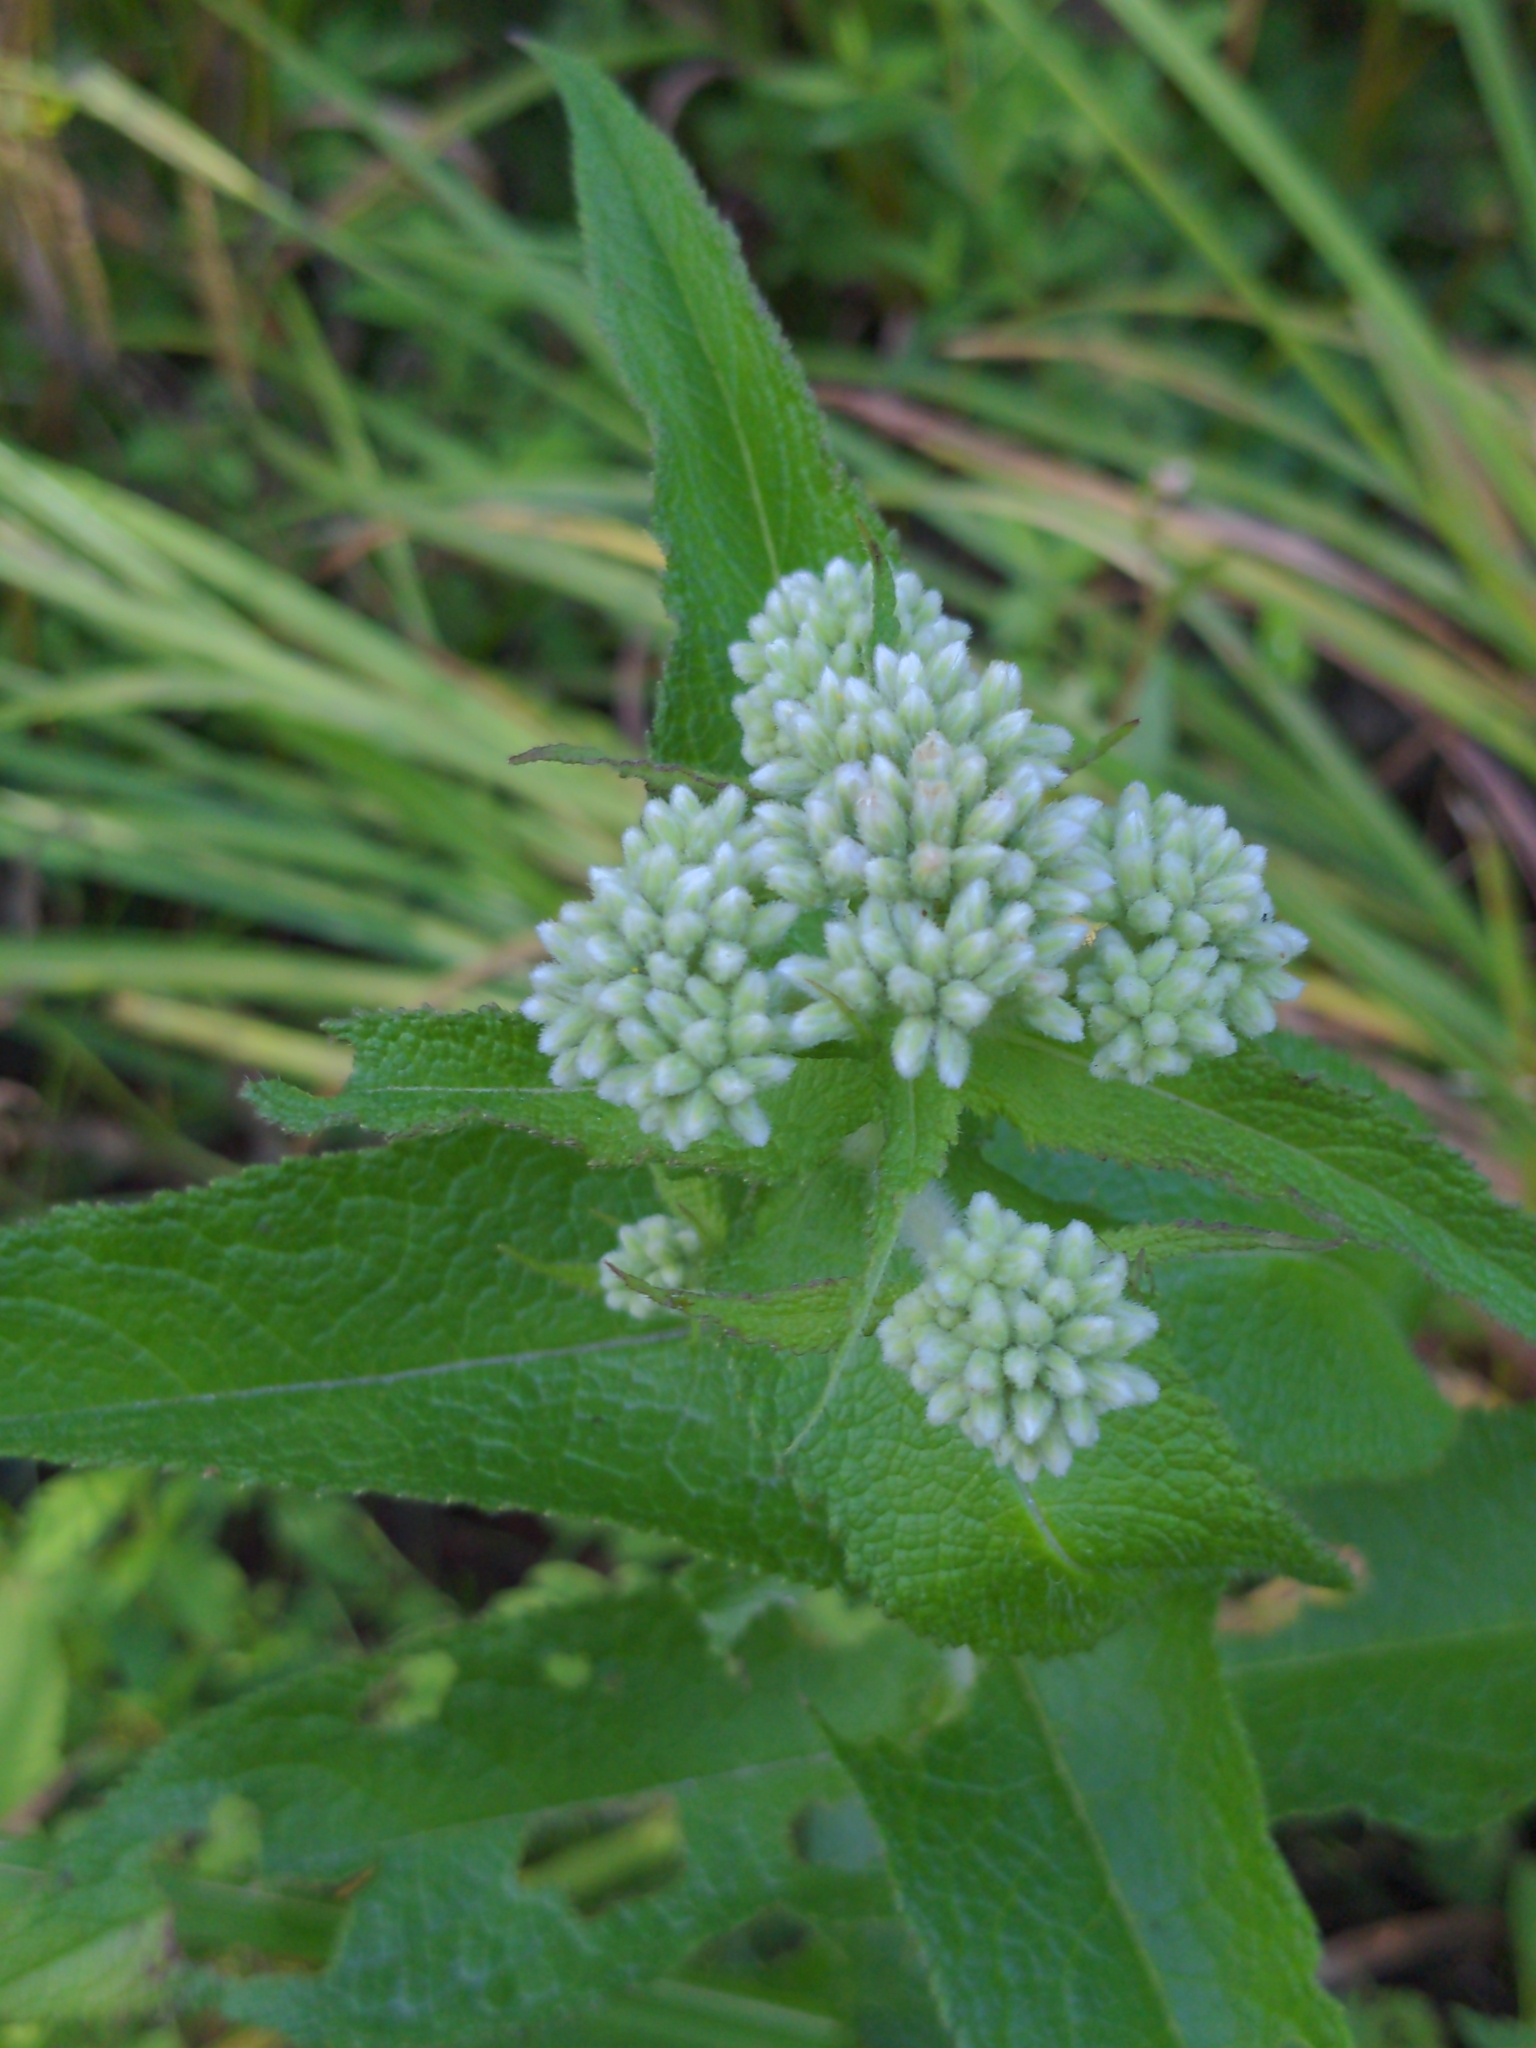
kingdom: Plantae
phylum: Tracheophyta
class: Magnoliopsida
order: Asterales
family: Asteraceae
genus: Eupatorium
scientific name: Eupatorium perfoliatum
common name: Boneset
